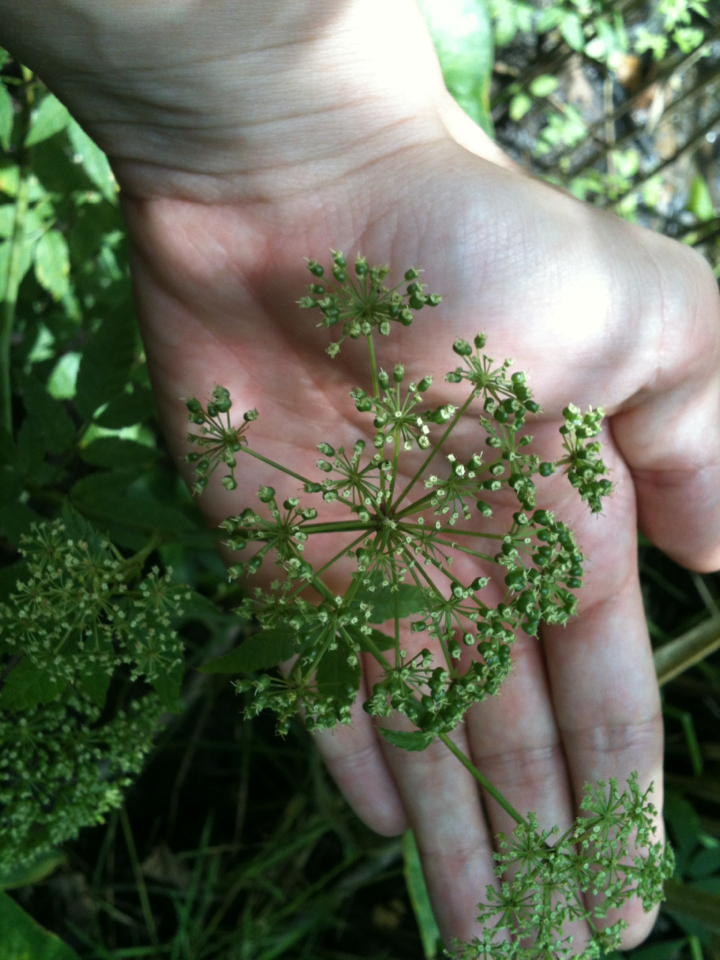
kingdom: Plantae
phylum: Tracheophyta
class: Magnoliopsida
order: Apiales
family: Apiaceae
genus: Cicuta
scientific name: Cicuta maculata
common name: Spotted cowbane
